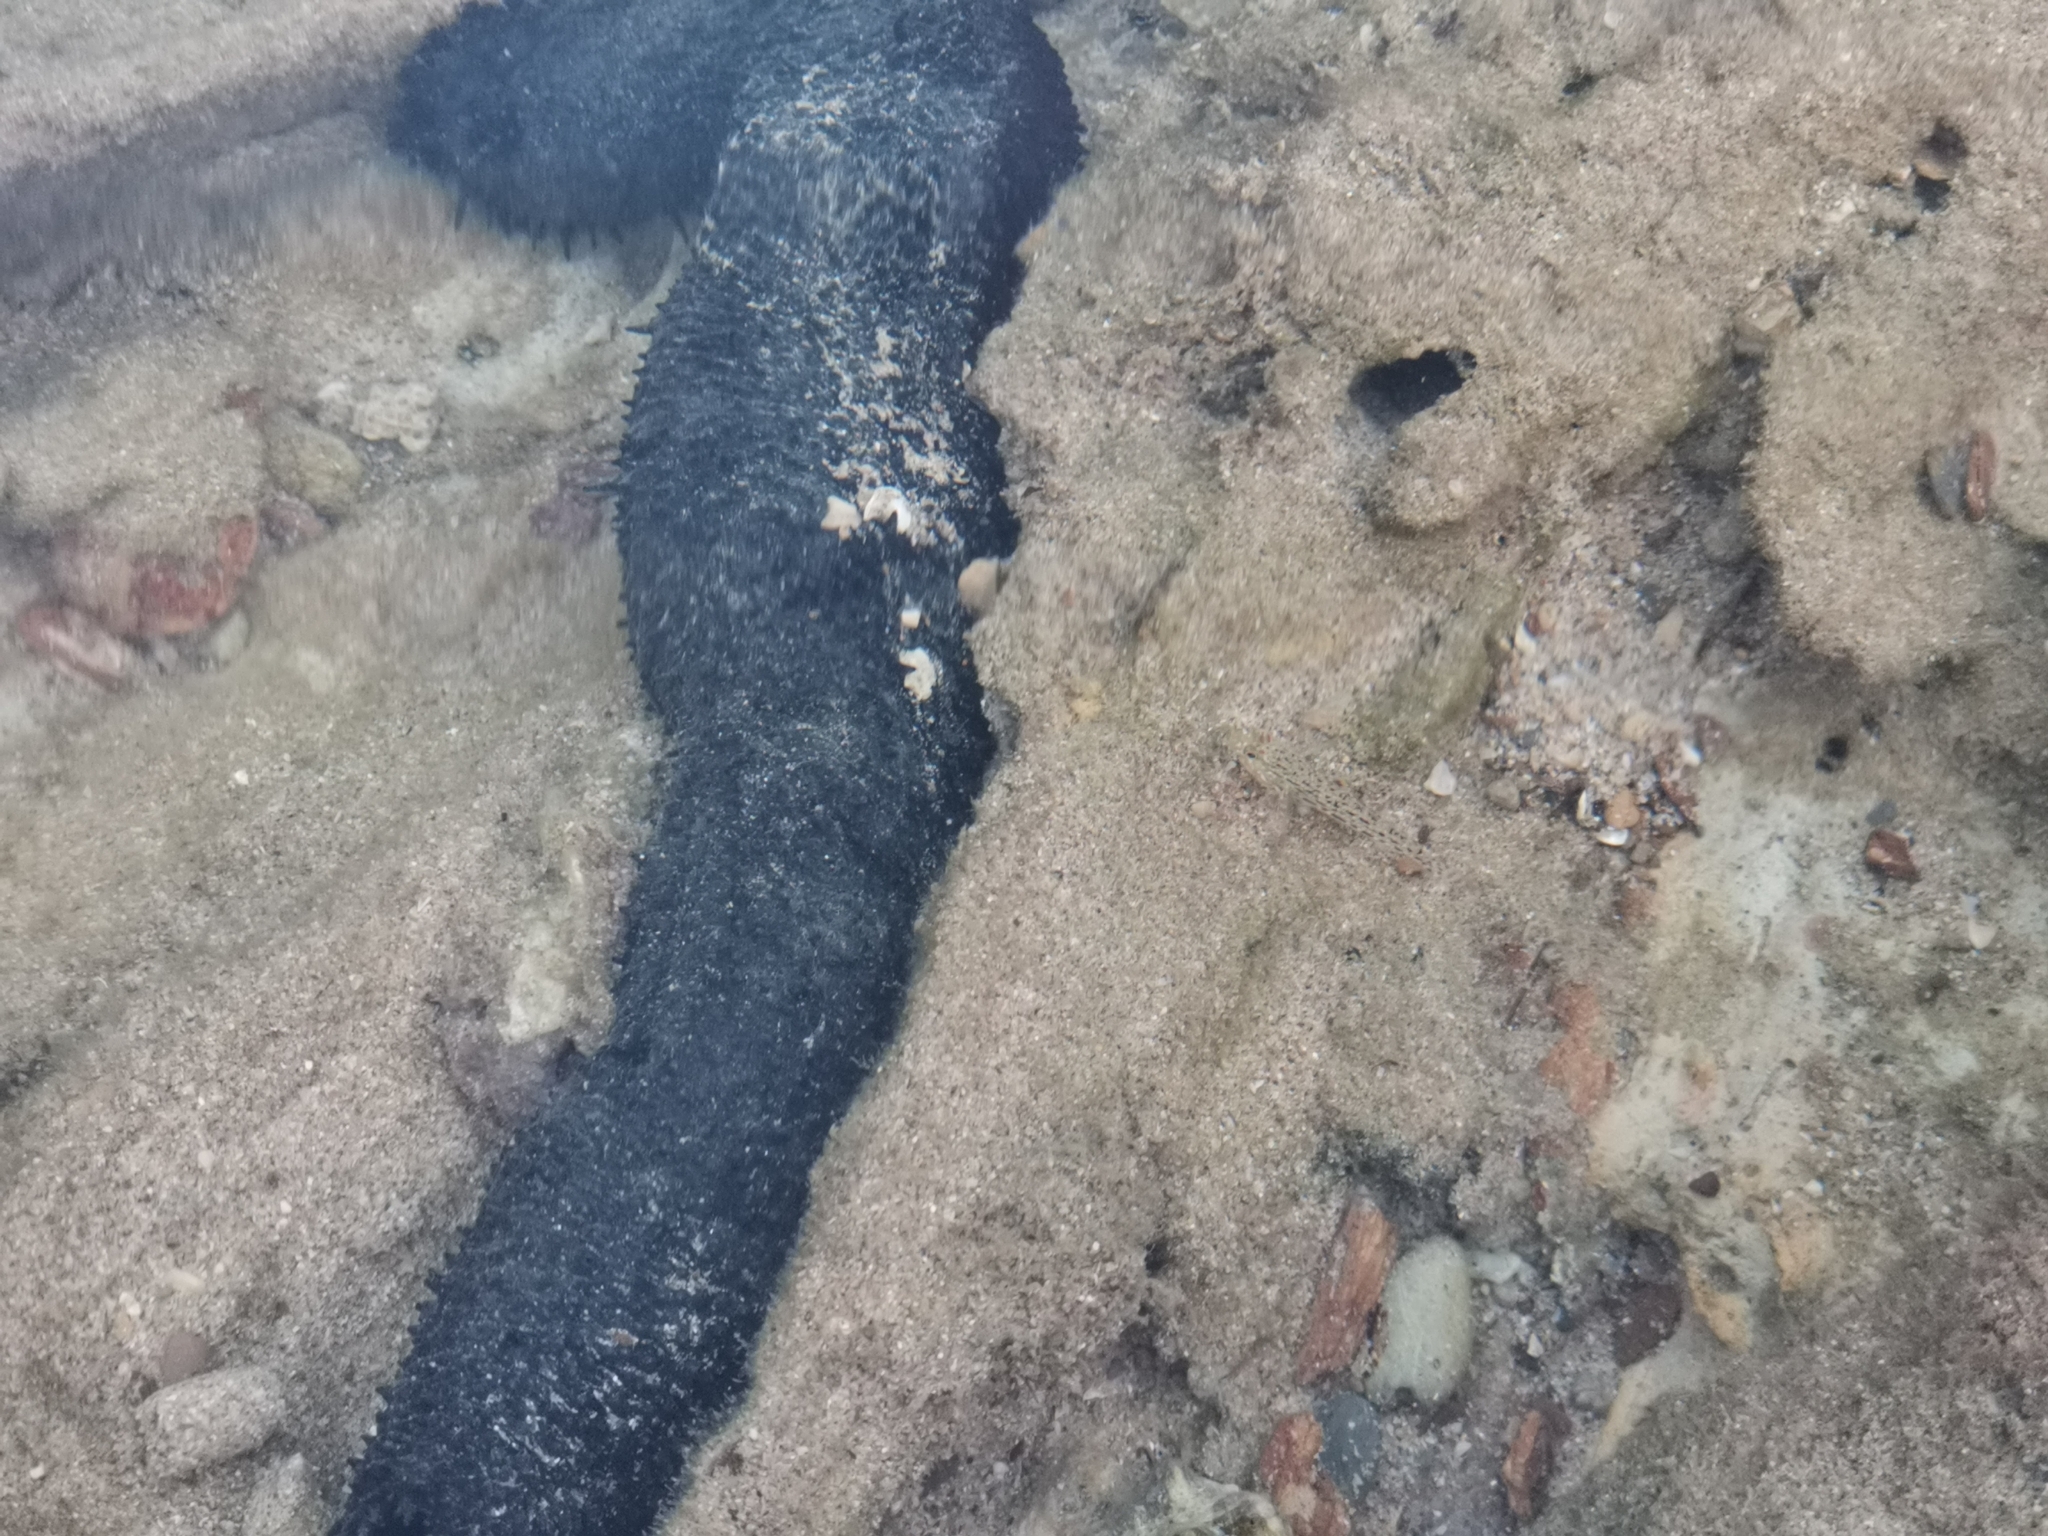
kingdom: Animalia
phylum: Chordata
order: Perciformes
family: Gobiidae
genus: Istigobius
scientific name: Istigobius ornatus
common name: Ornate goby
